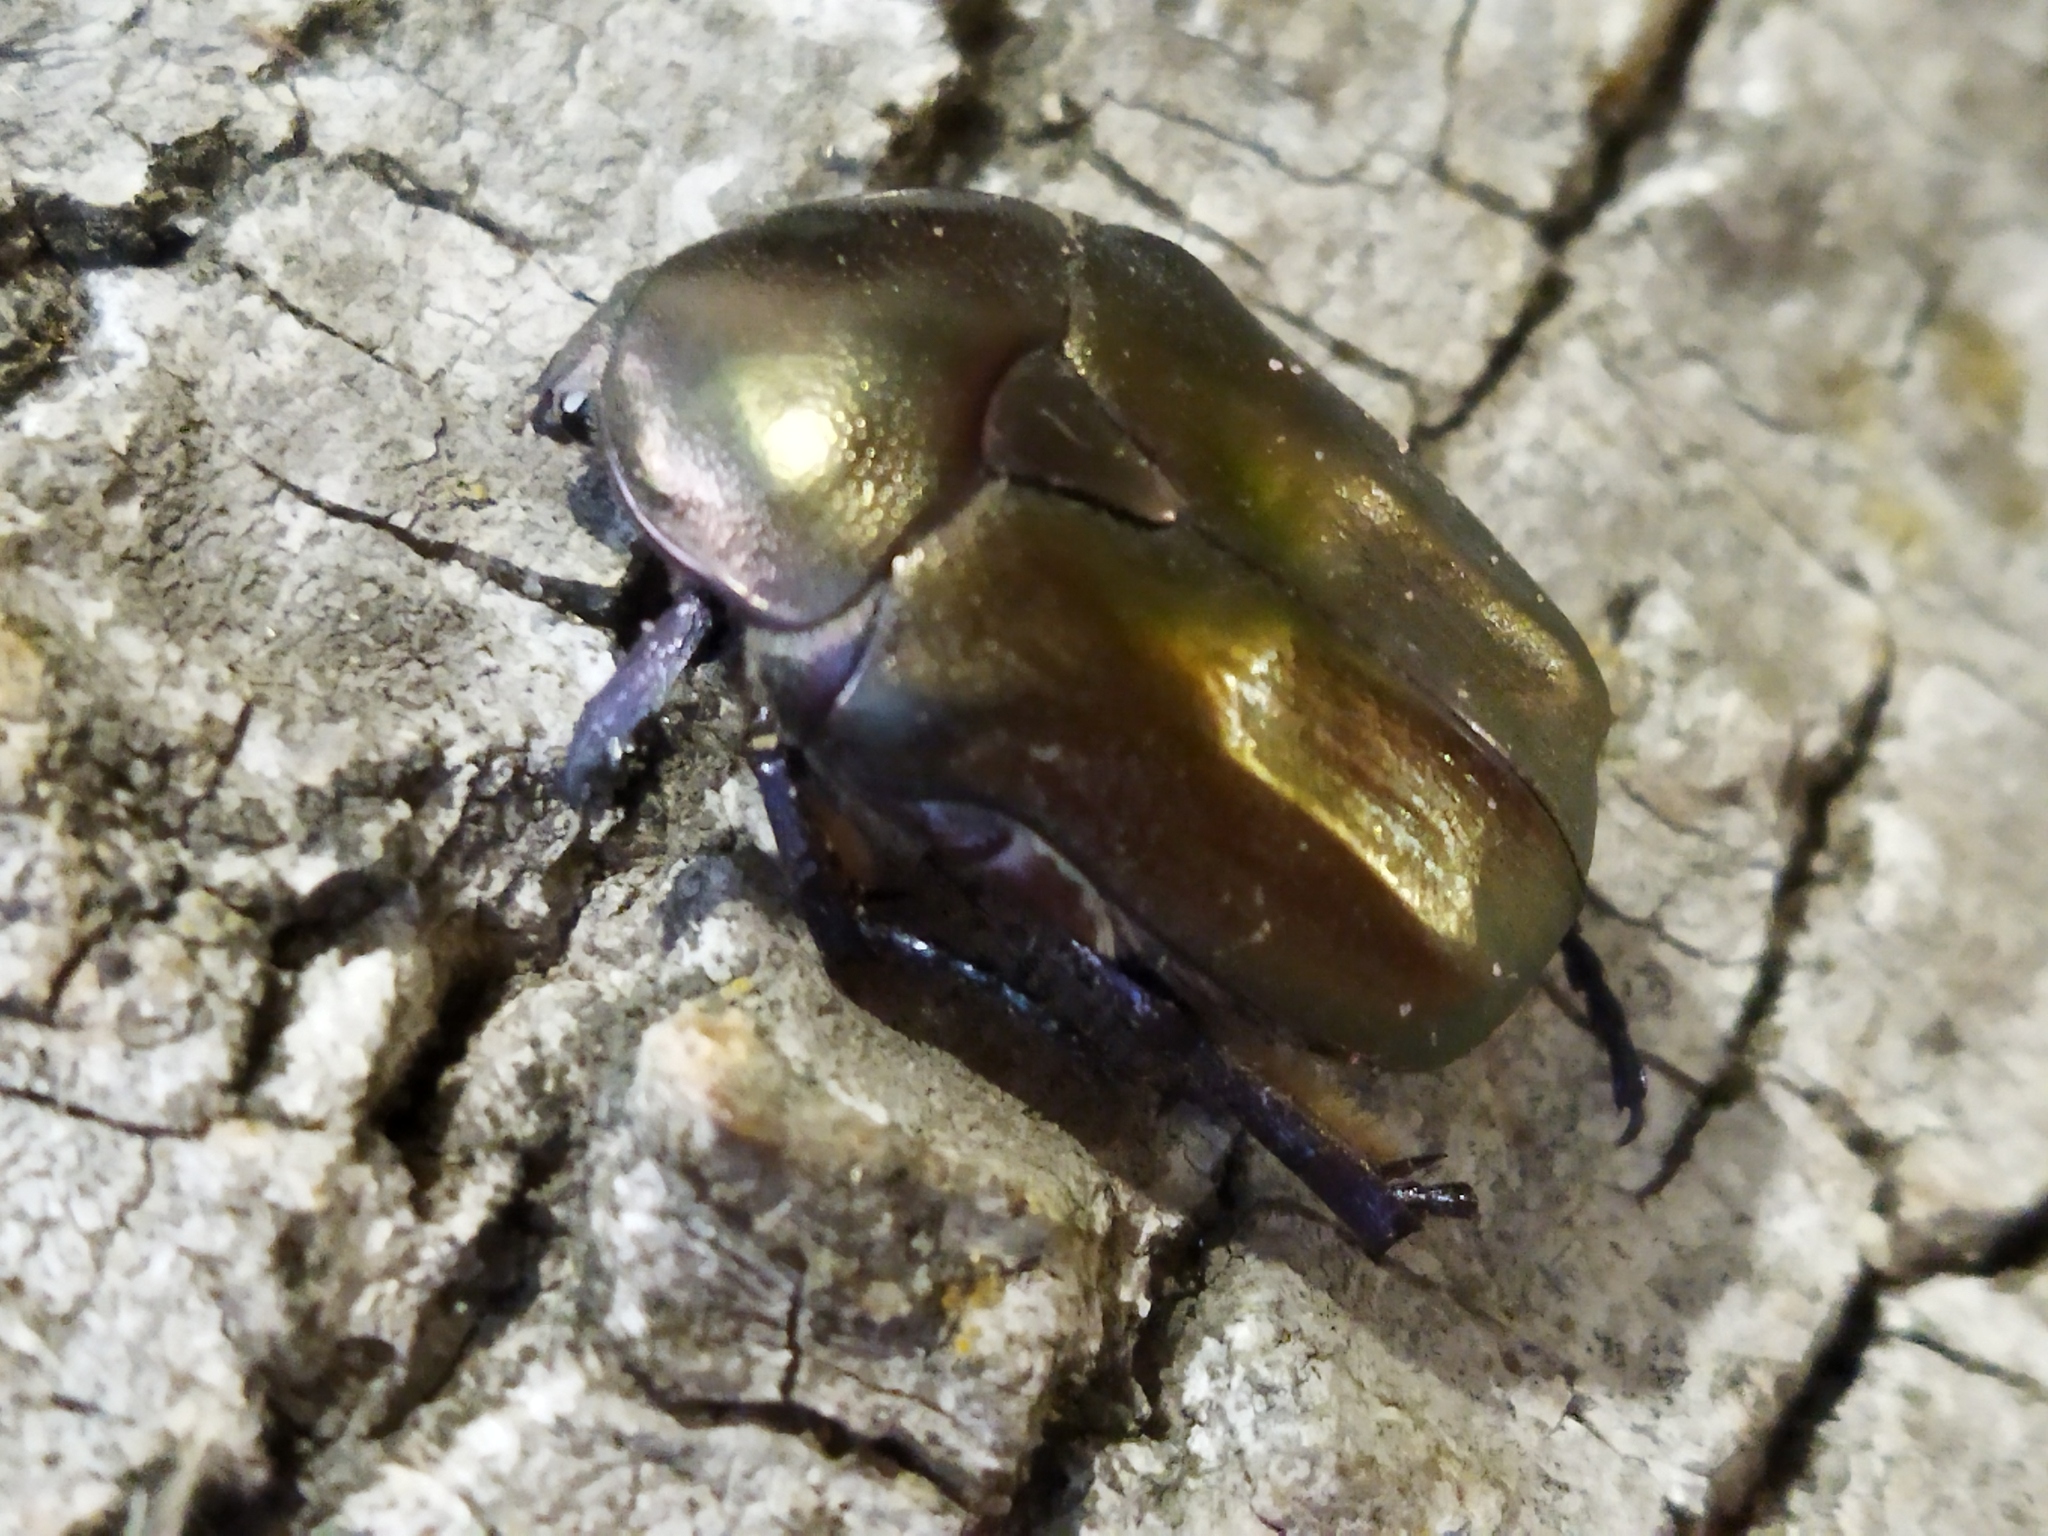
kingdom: Animalia
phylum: Arthropoda
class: Insecta
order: Coleoptera
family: Scarabaeidae
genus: Protaetia
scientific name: Protaetia cuprea
